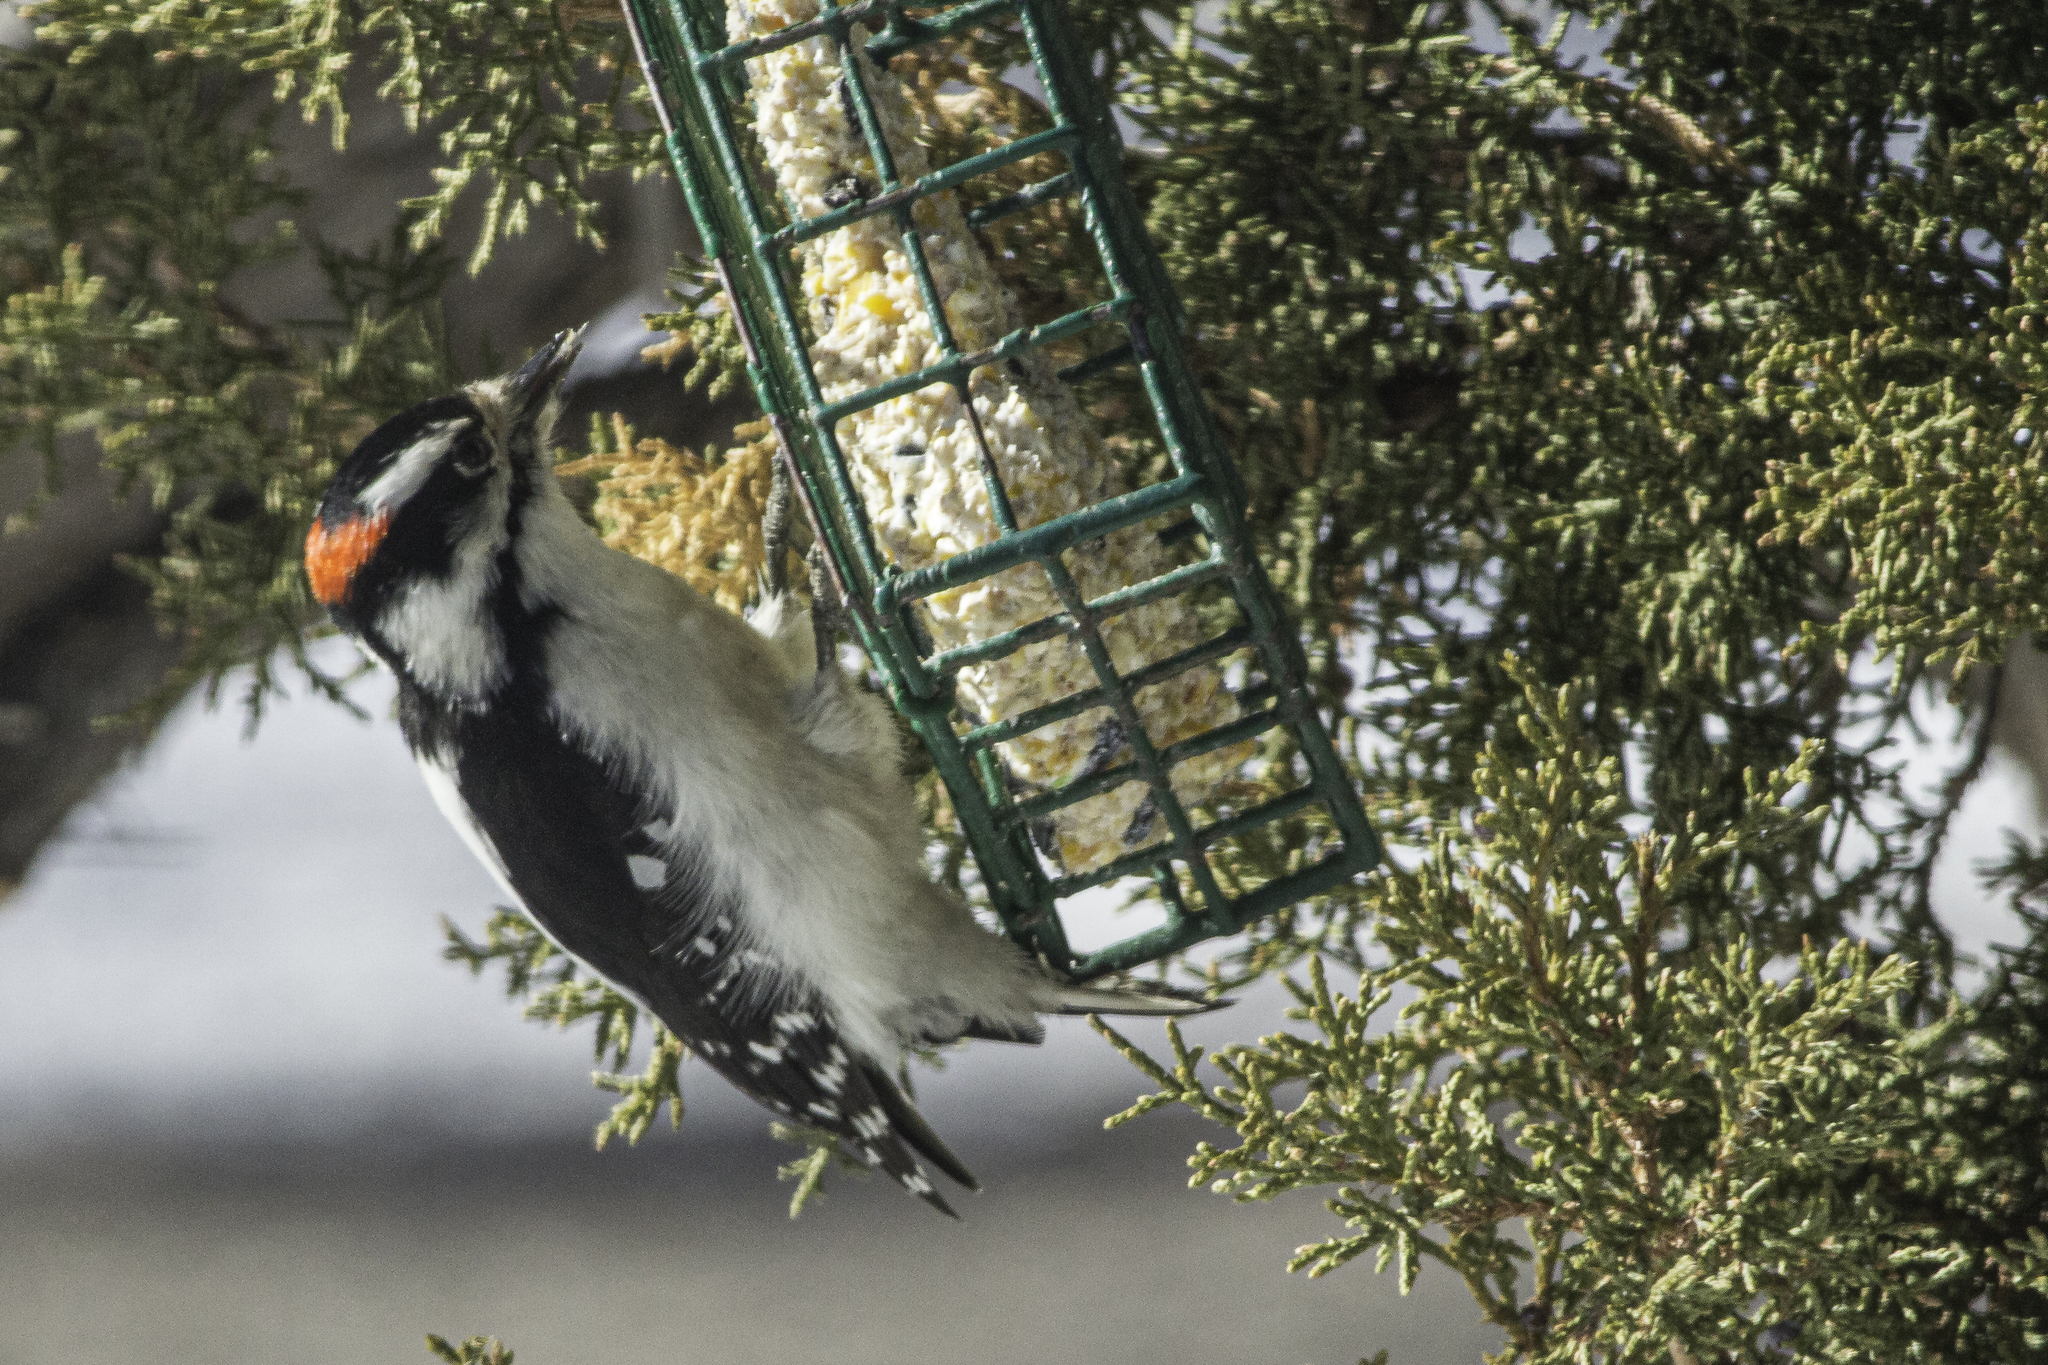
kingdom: Animalia
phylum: Chordata
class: Aves
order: Piciformes
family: Picidae
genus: Dryobates
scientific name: Dryobates pubescens
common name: Downy woodpecker
